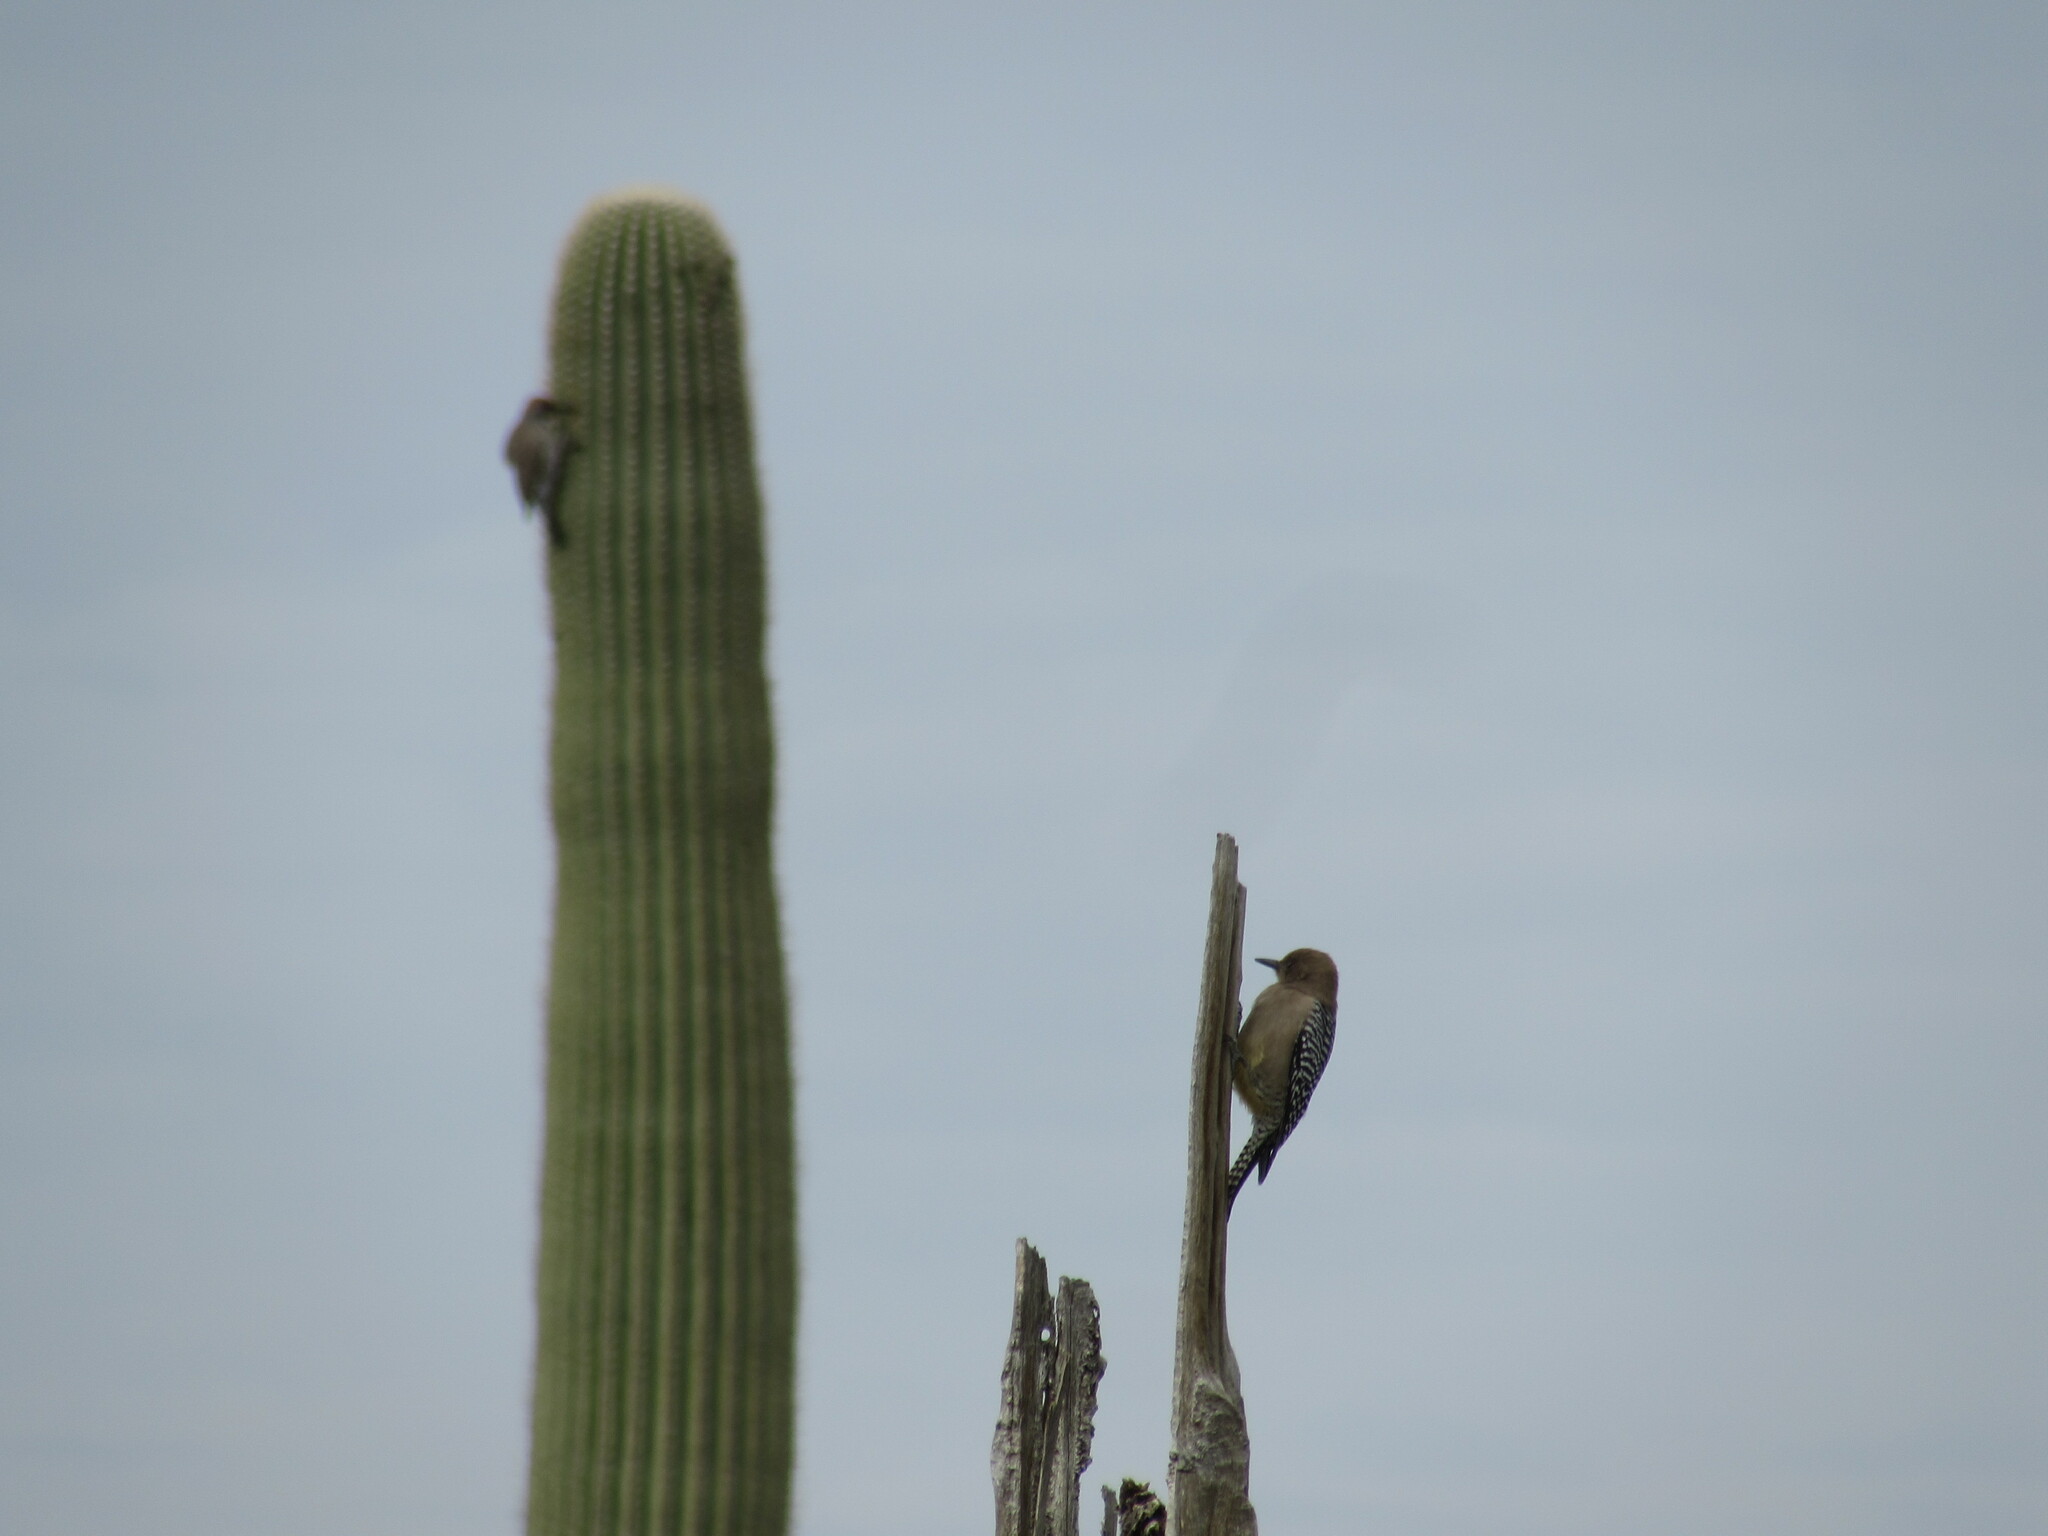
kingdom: Animalia
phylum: Chordata
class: Aves
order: Piciformes
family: Picidae
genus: Melanerpes
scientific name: Melanerpes uropygialis
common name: Gila woodpecker
